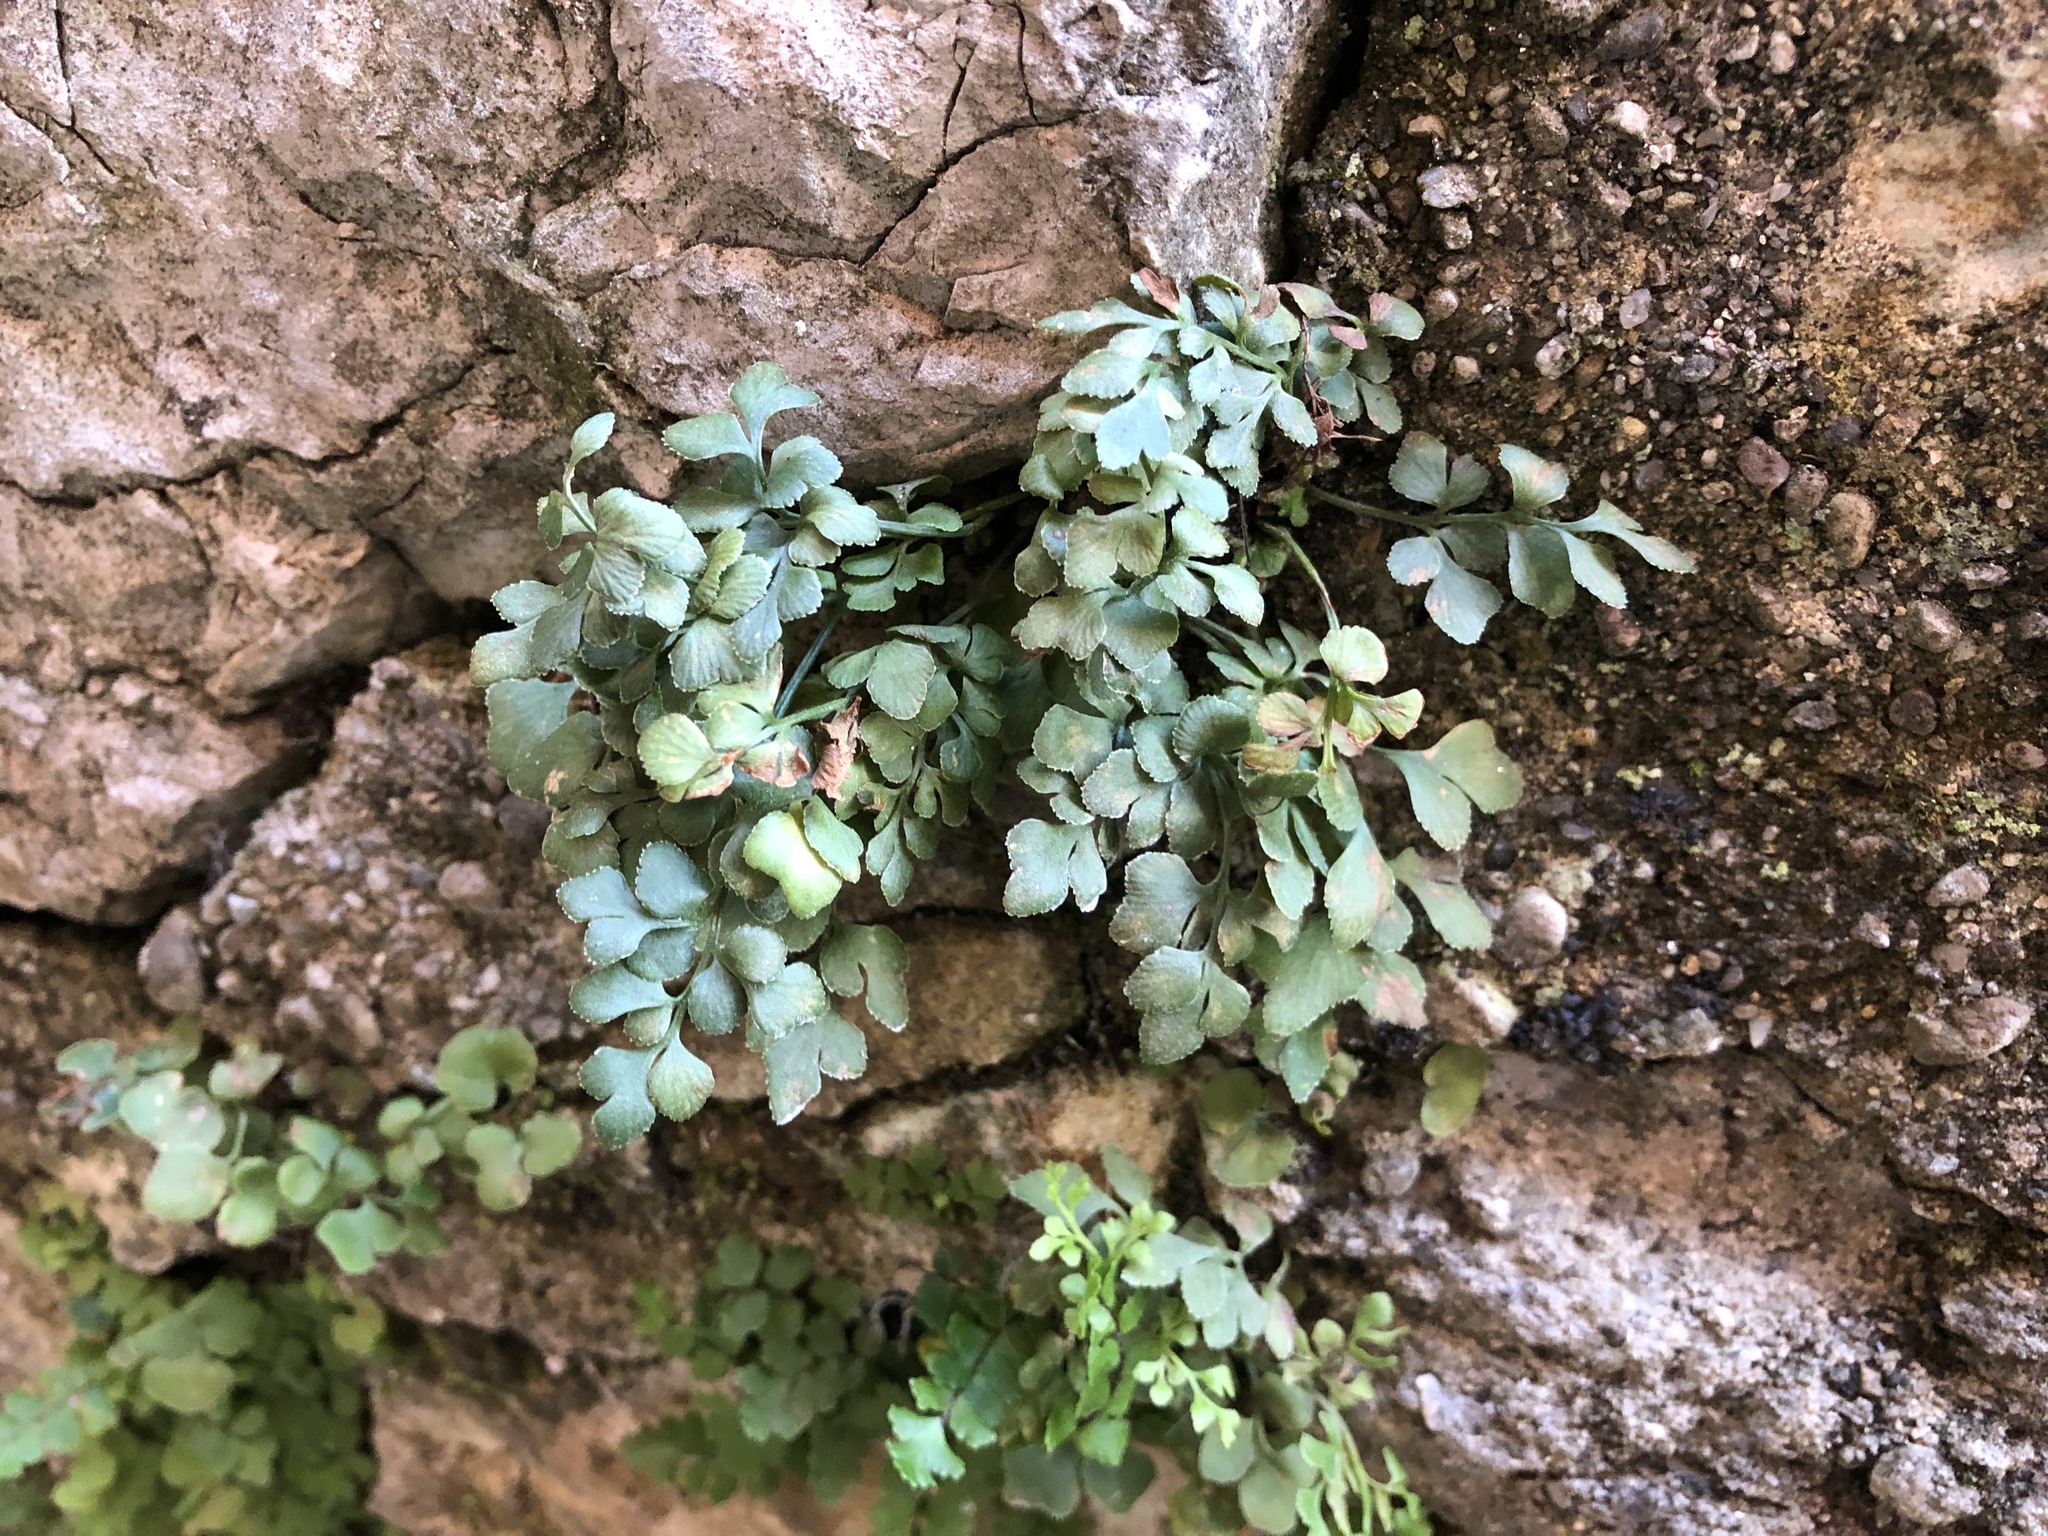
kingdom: Plantae
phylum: Tracheophyta
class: Polypodiopsida
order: Polypodiales
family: Aspleniaceae
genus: Asplenium
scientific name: Asplenium ruta-muraria
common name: Wall-rue
